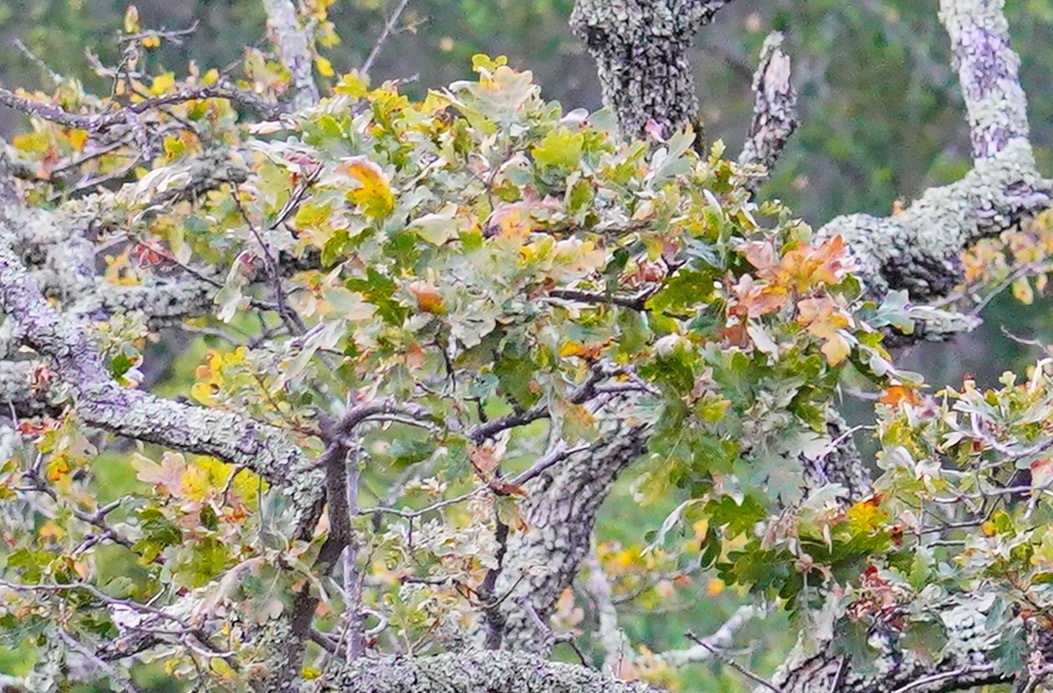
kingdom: Plantae
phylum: Tracheophyta
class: Magnoliopsida
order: Fagales
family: Fagaceae
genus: Quercus
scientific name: Quercus lobata
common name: Valley oak
